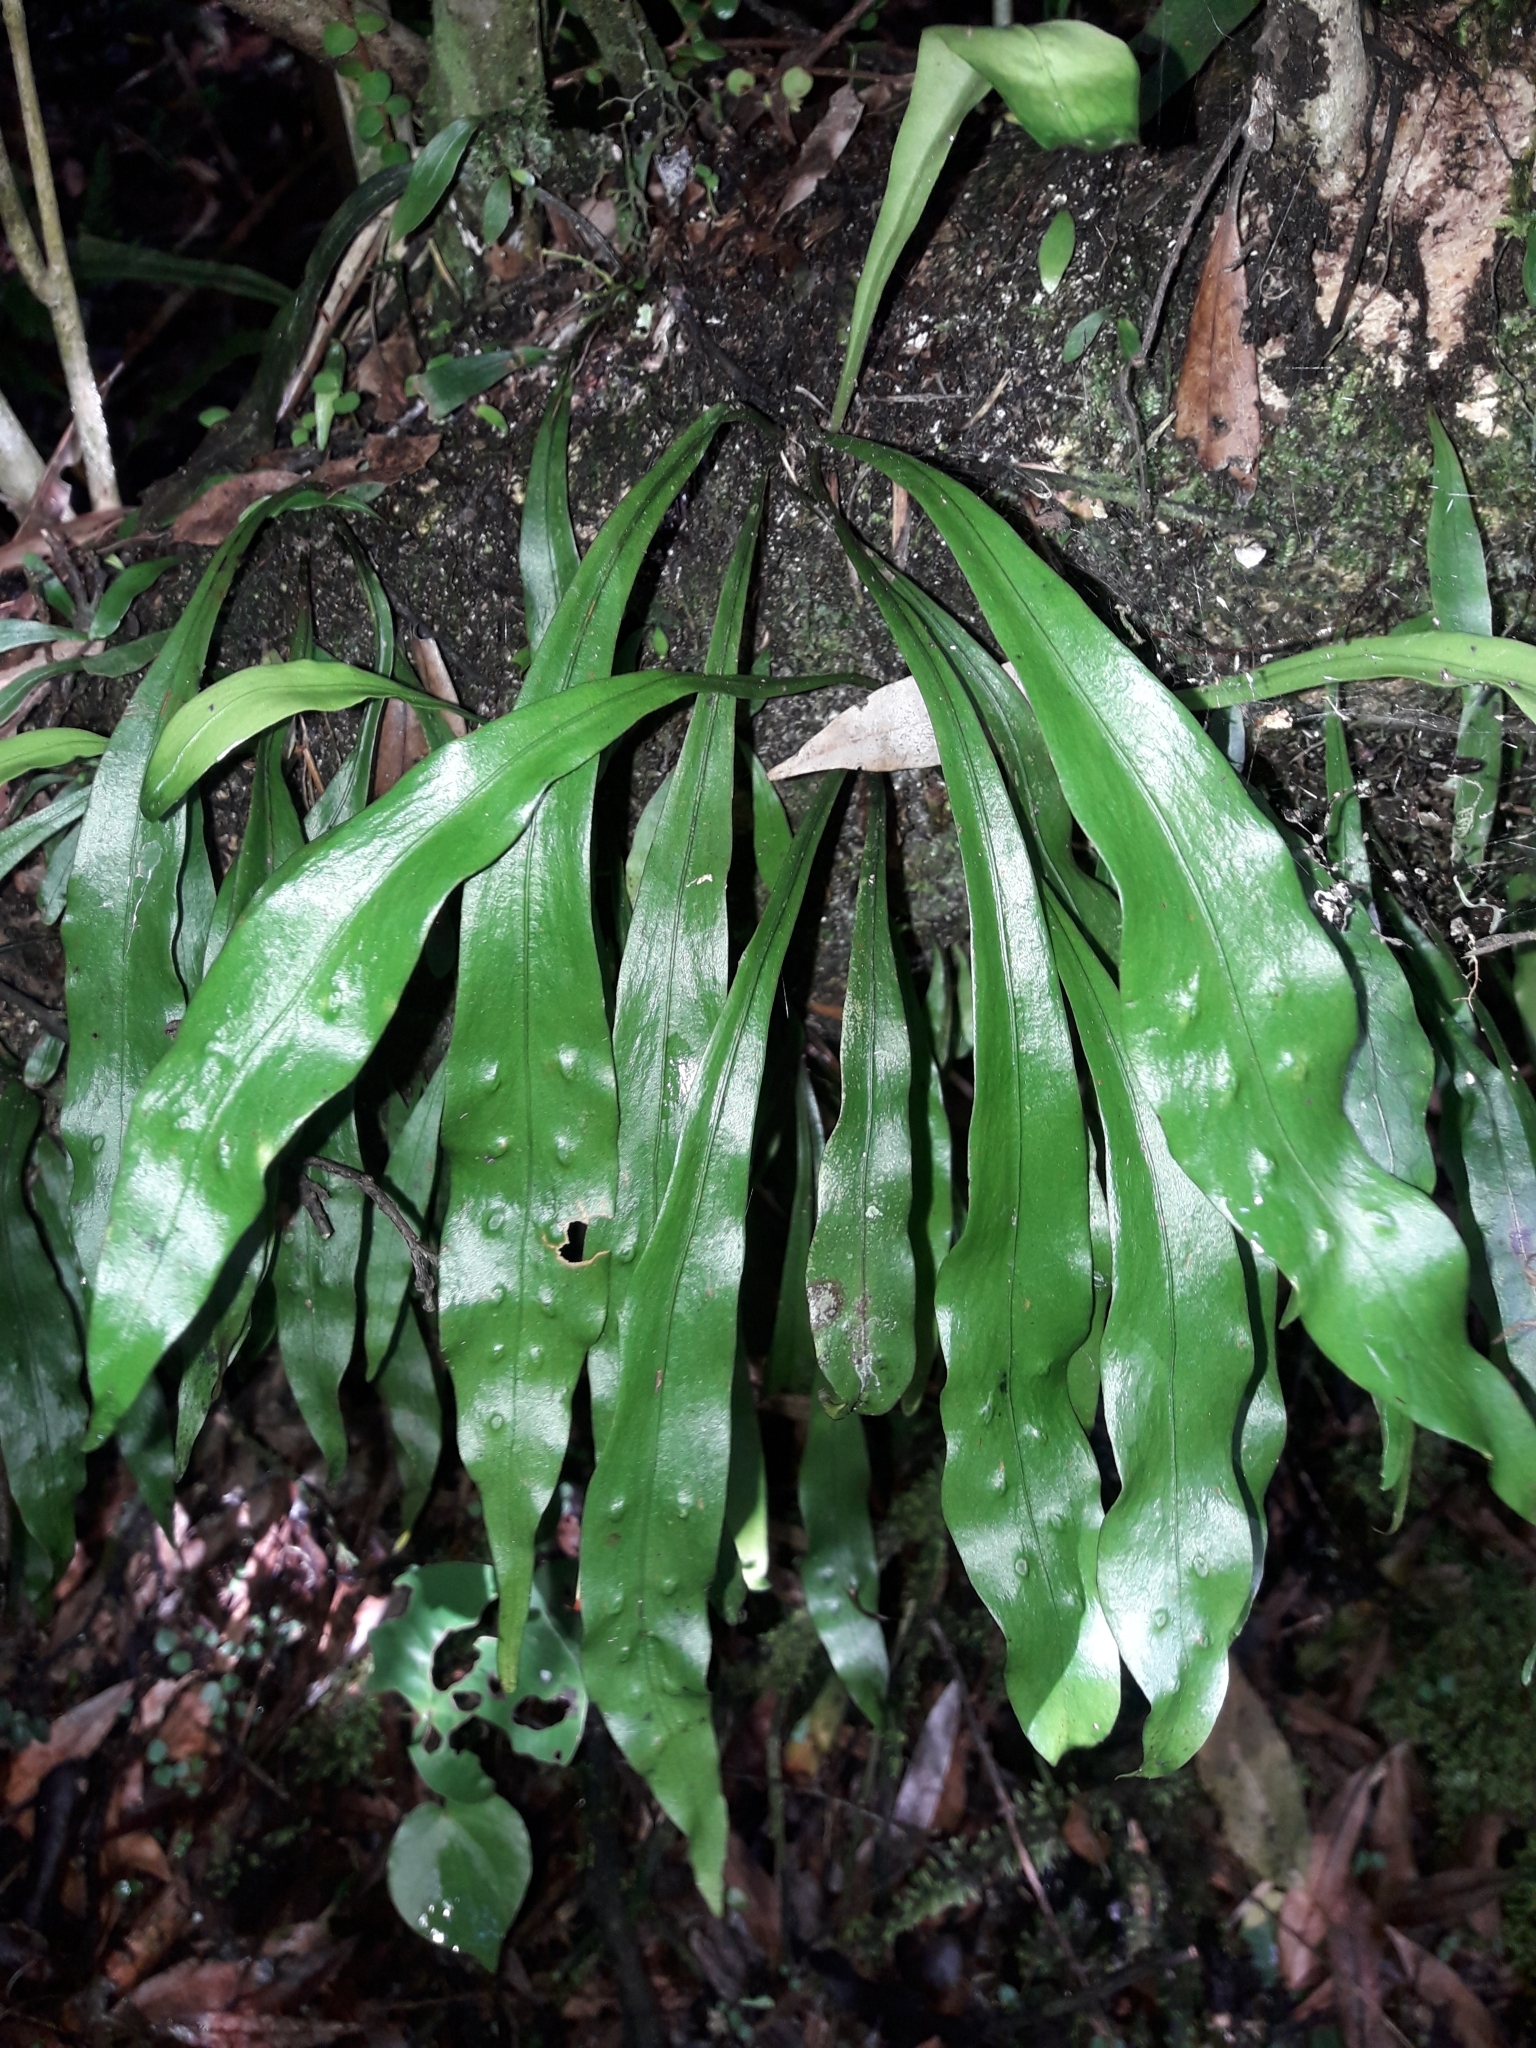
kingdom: Plantae
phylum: Tracheophyta
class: Polypodiopsida
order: Polypodiales
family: Polypodiaceae
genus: Loxogramme
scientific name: Loxogramme dictyopteris
